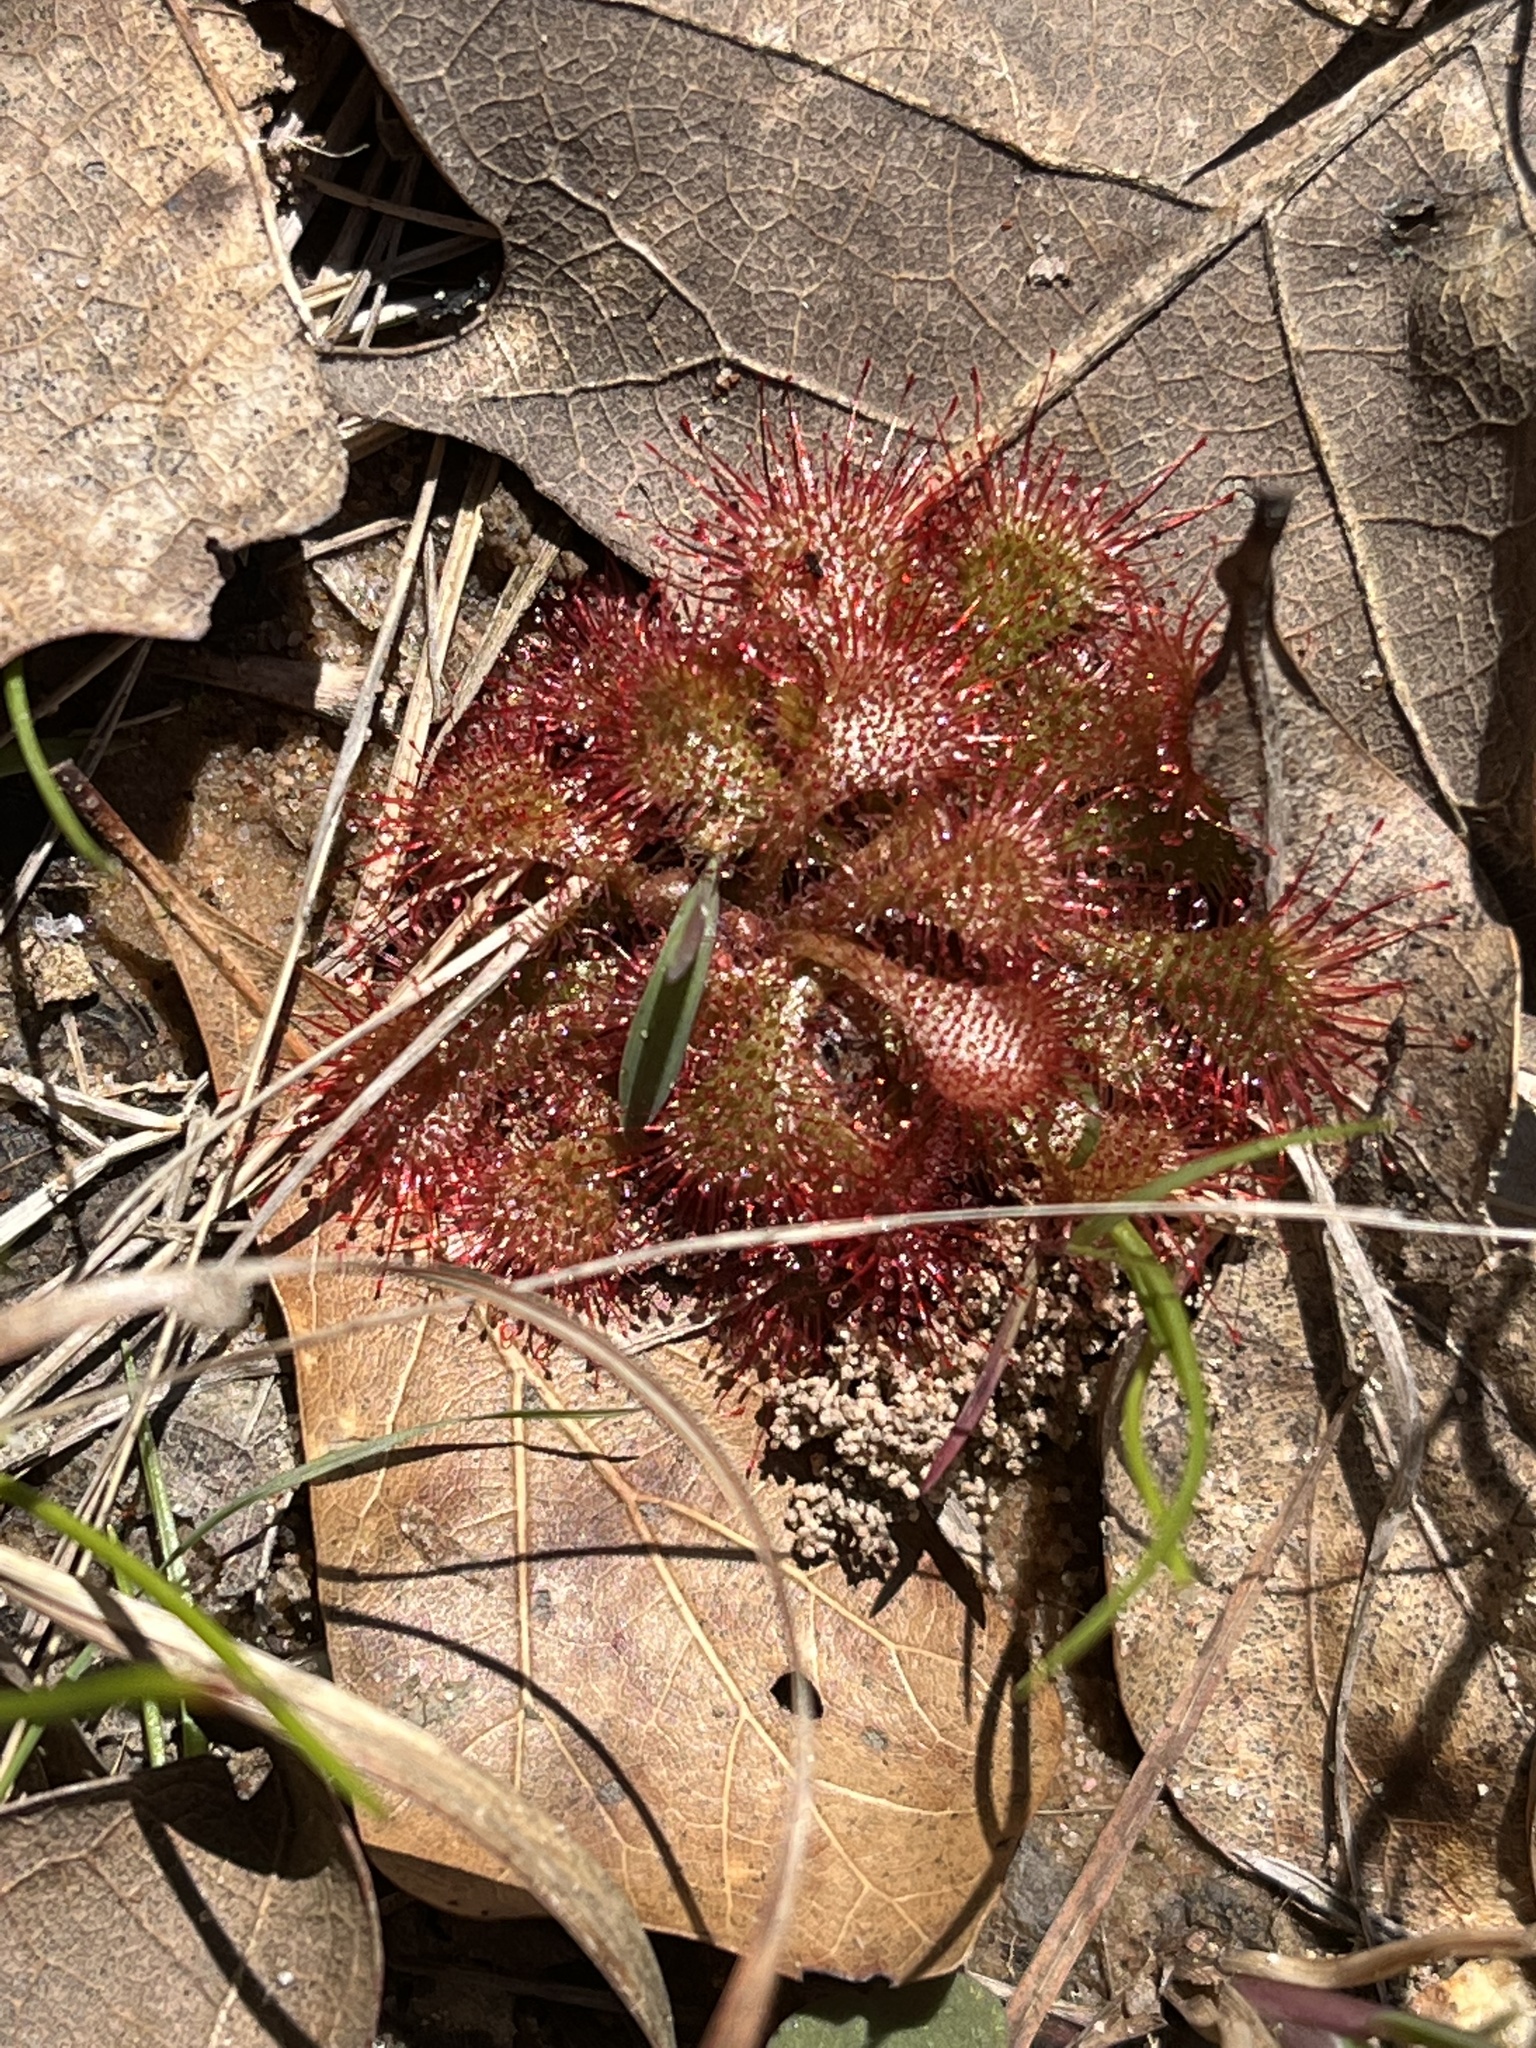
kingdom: Plantae
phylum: Tracheophyta
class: Magnoliopsida
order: Caryophyllales
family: Droseraceae
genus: Drosera
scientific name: Drosera brevifolia
